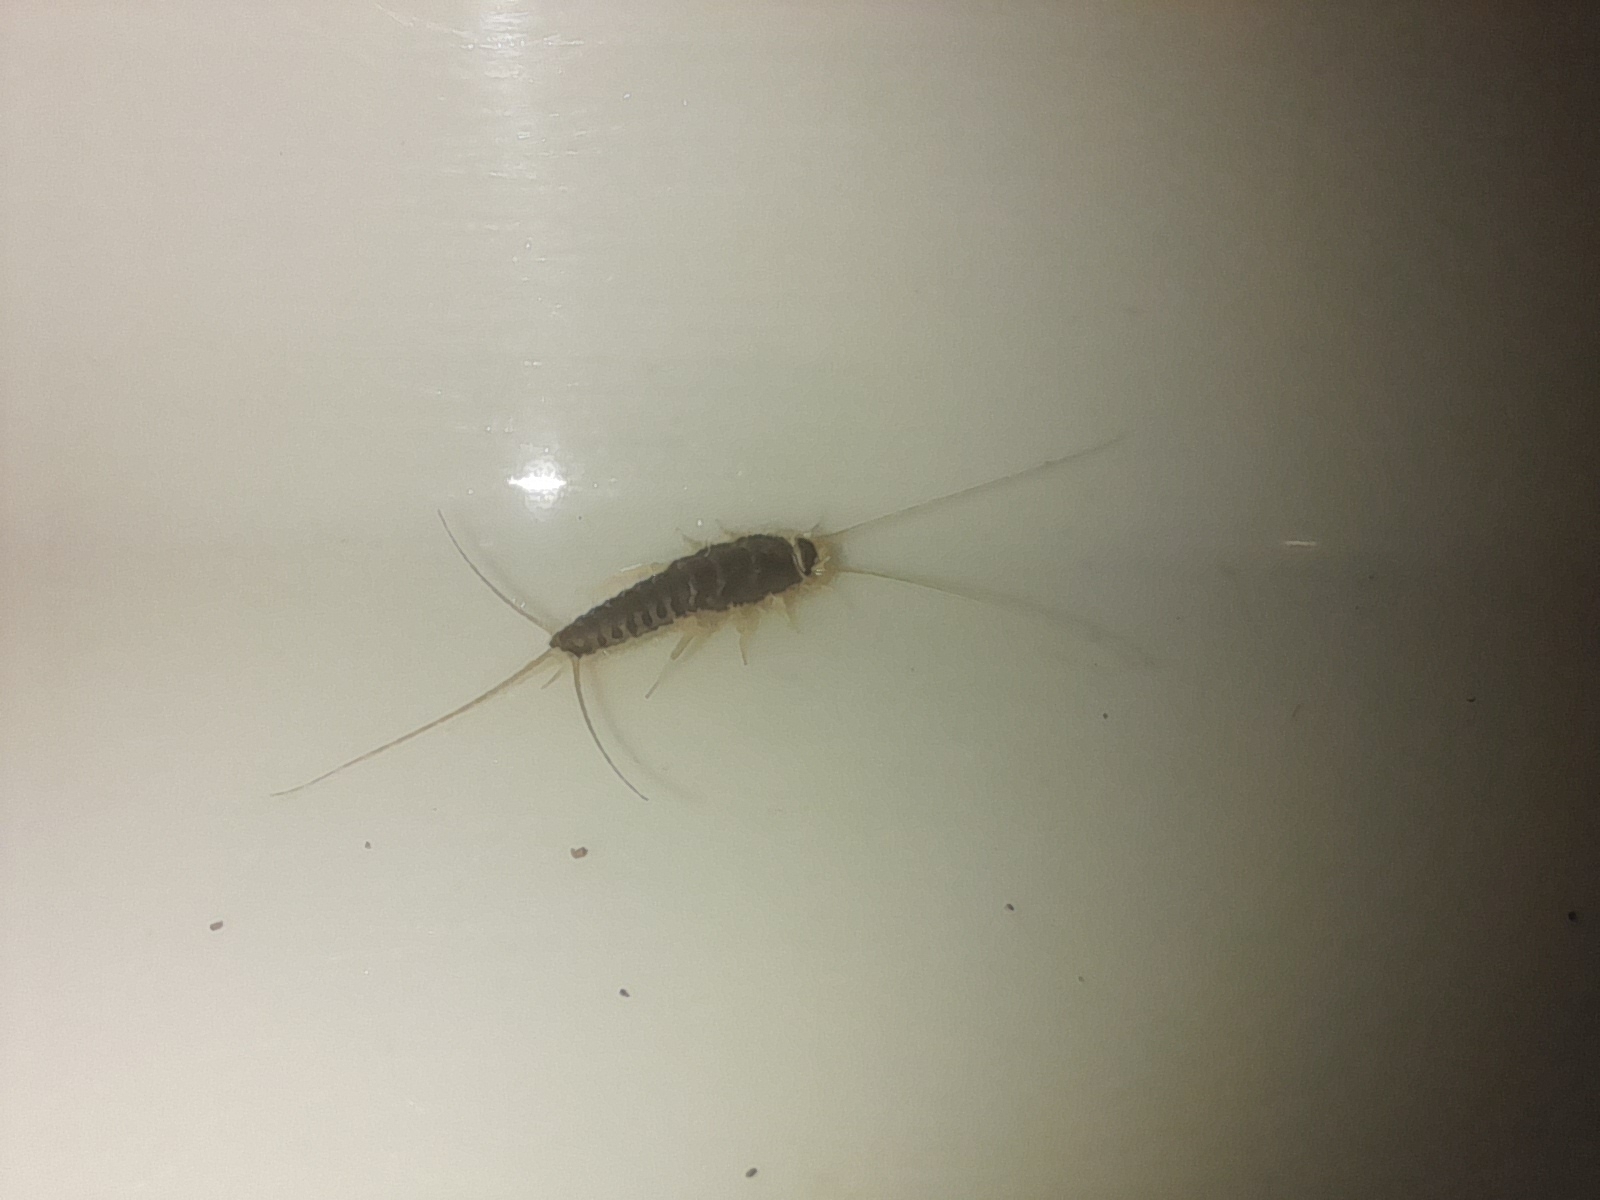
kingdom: Animalia
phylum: Arthropoda
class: Insecta
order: Zygentoma
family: Lepismatidae
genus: Ctenolepisma
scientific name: Ctenolepisma longicaudatum
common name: Silverfish
